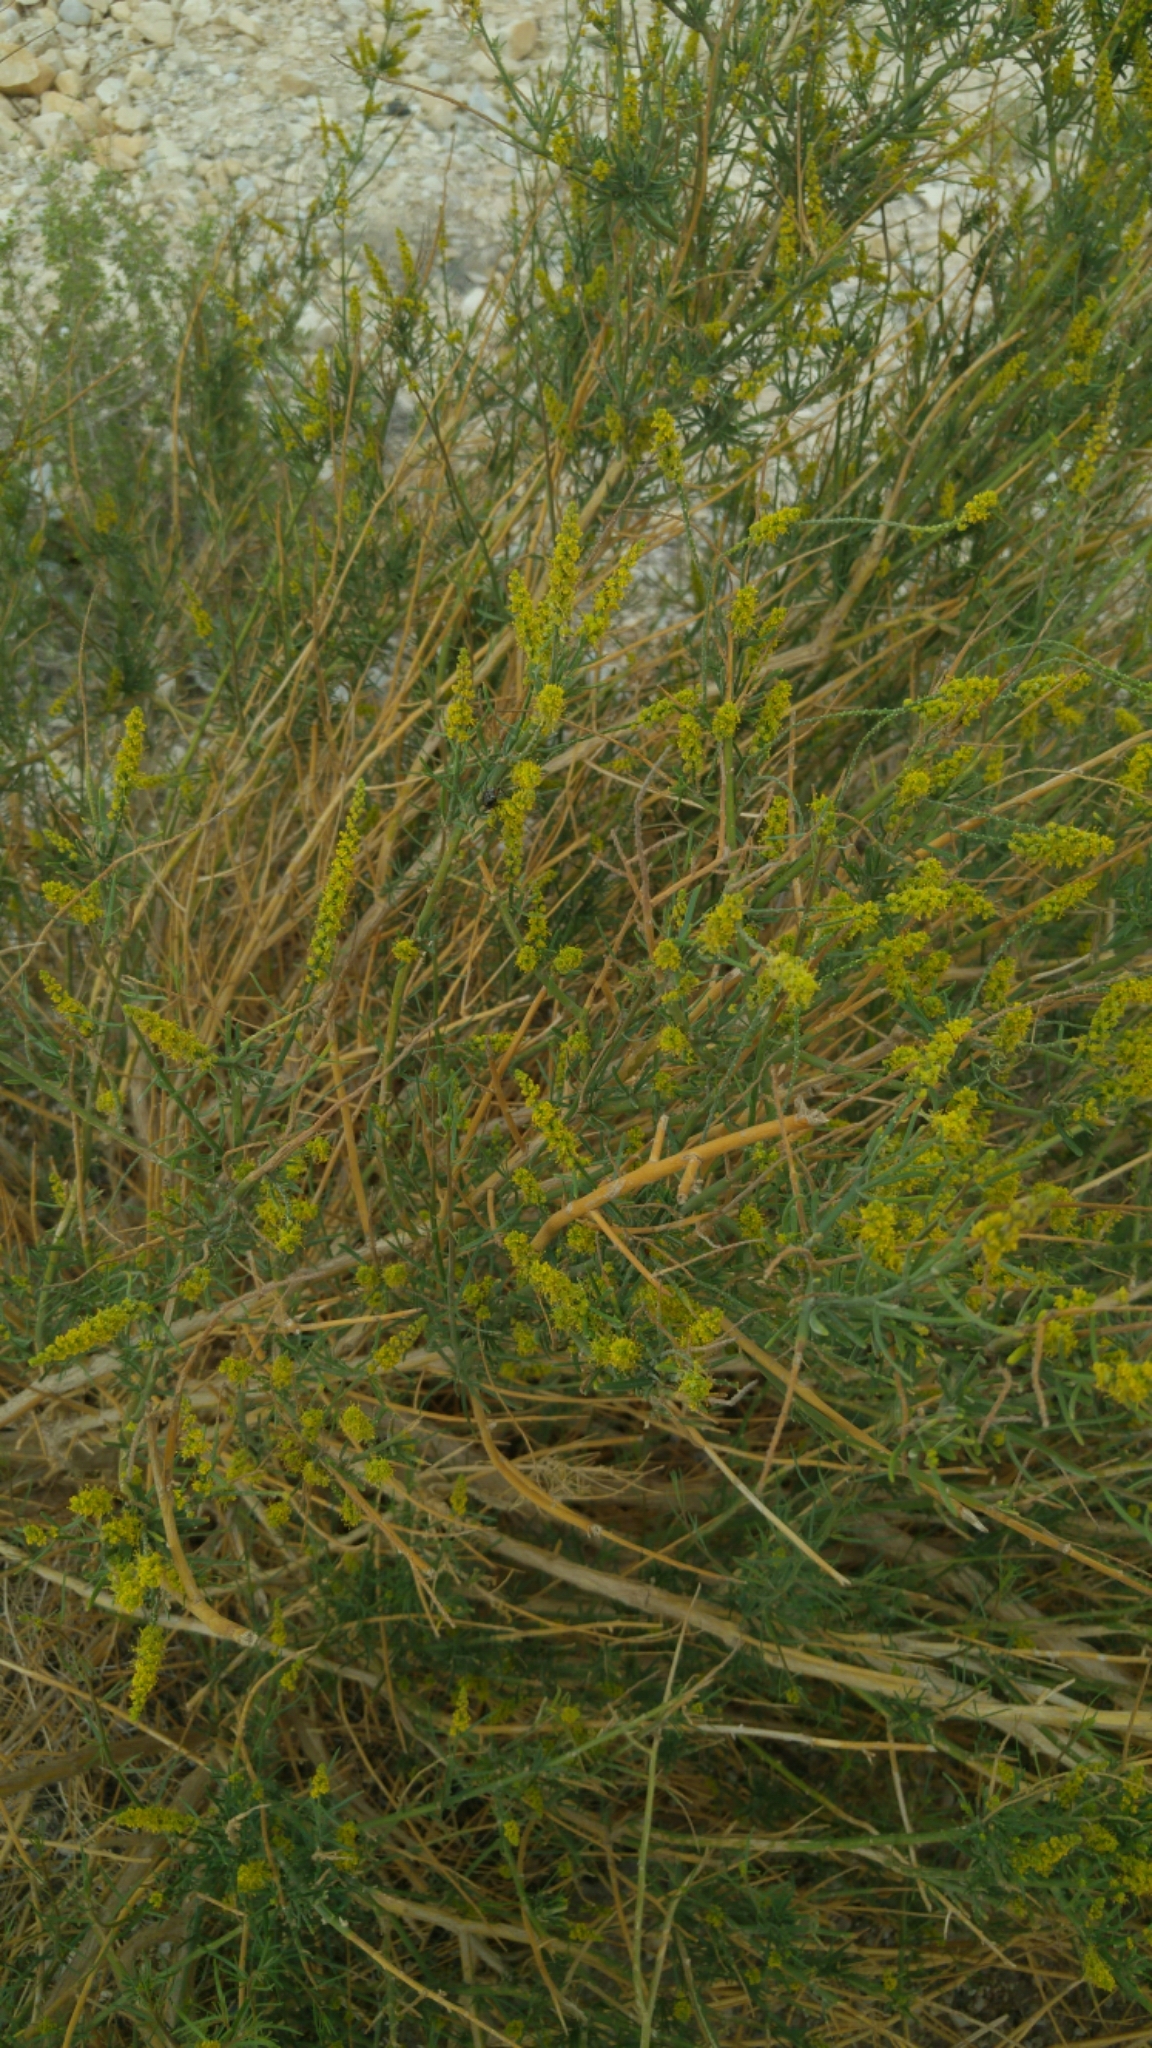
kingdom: Plantae
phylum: Tracheophyta
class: Magnoliopsida
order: Brassicales
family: Resedaceae
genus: Ochradenus
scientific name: Ochradenus baccatus
